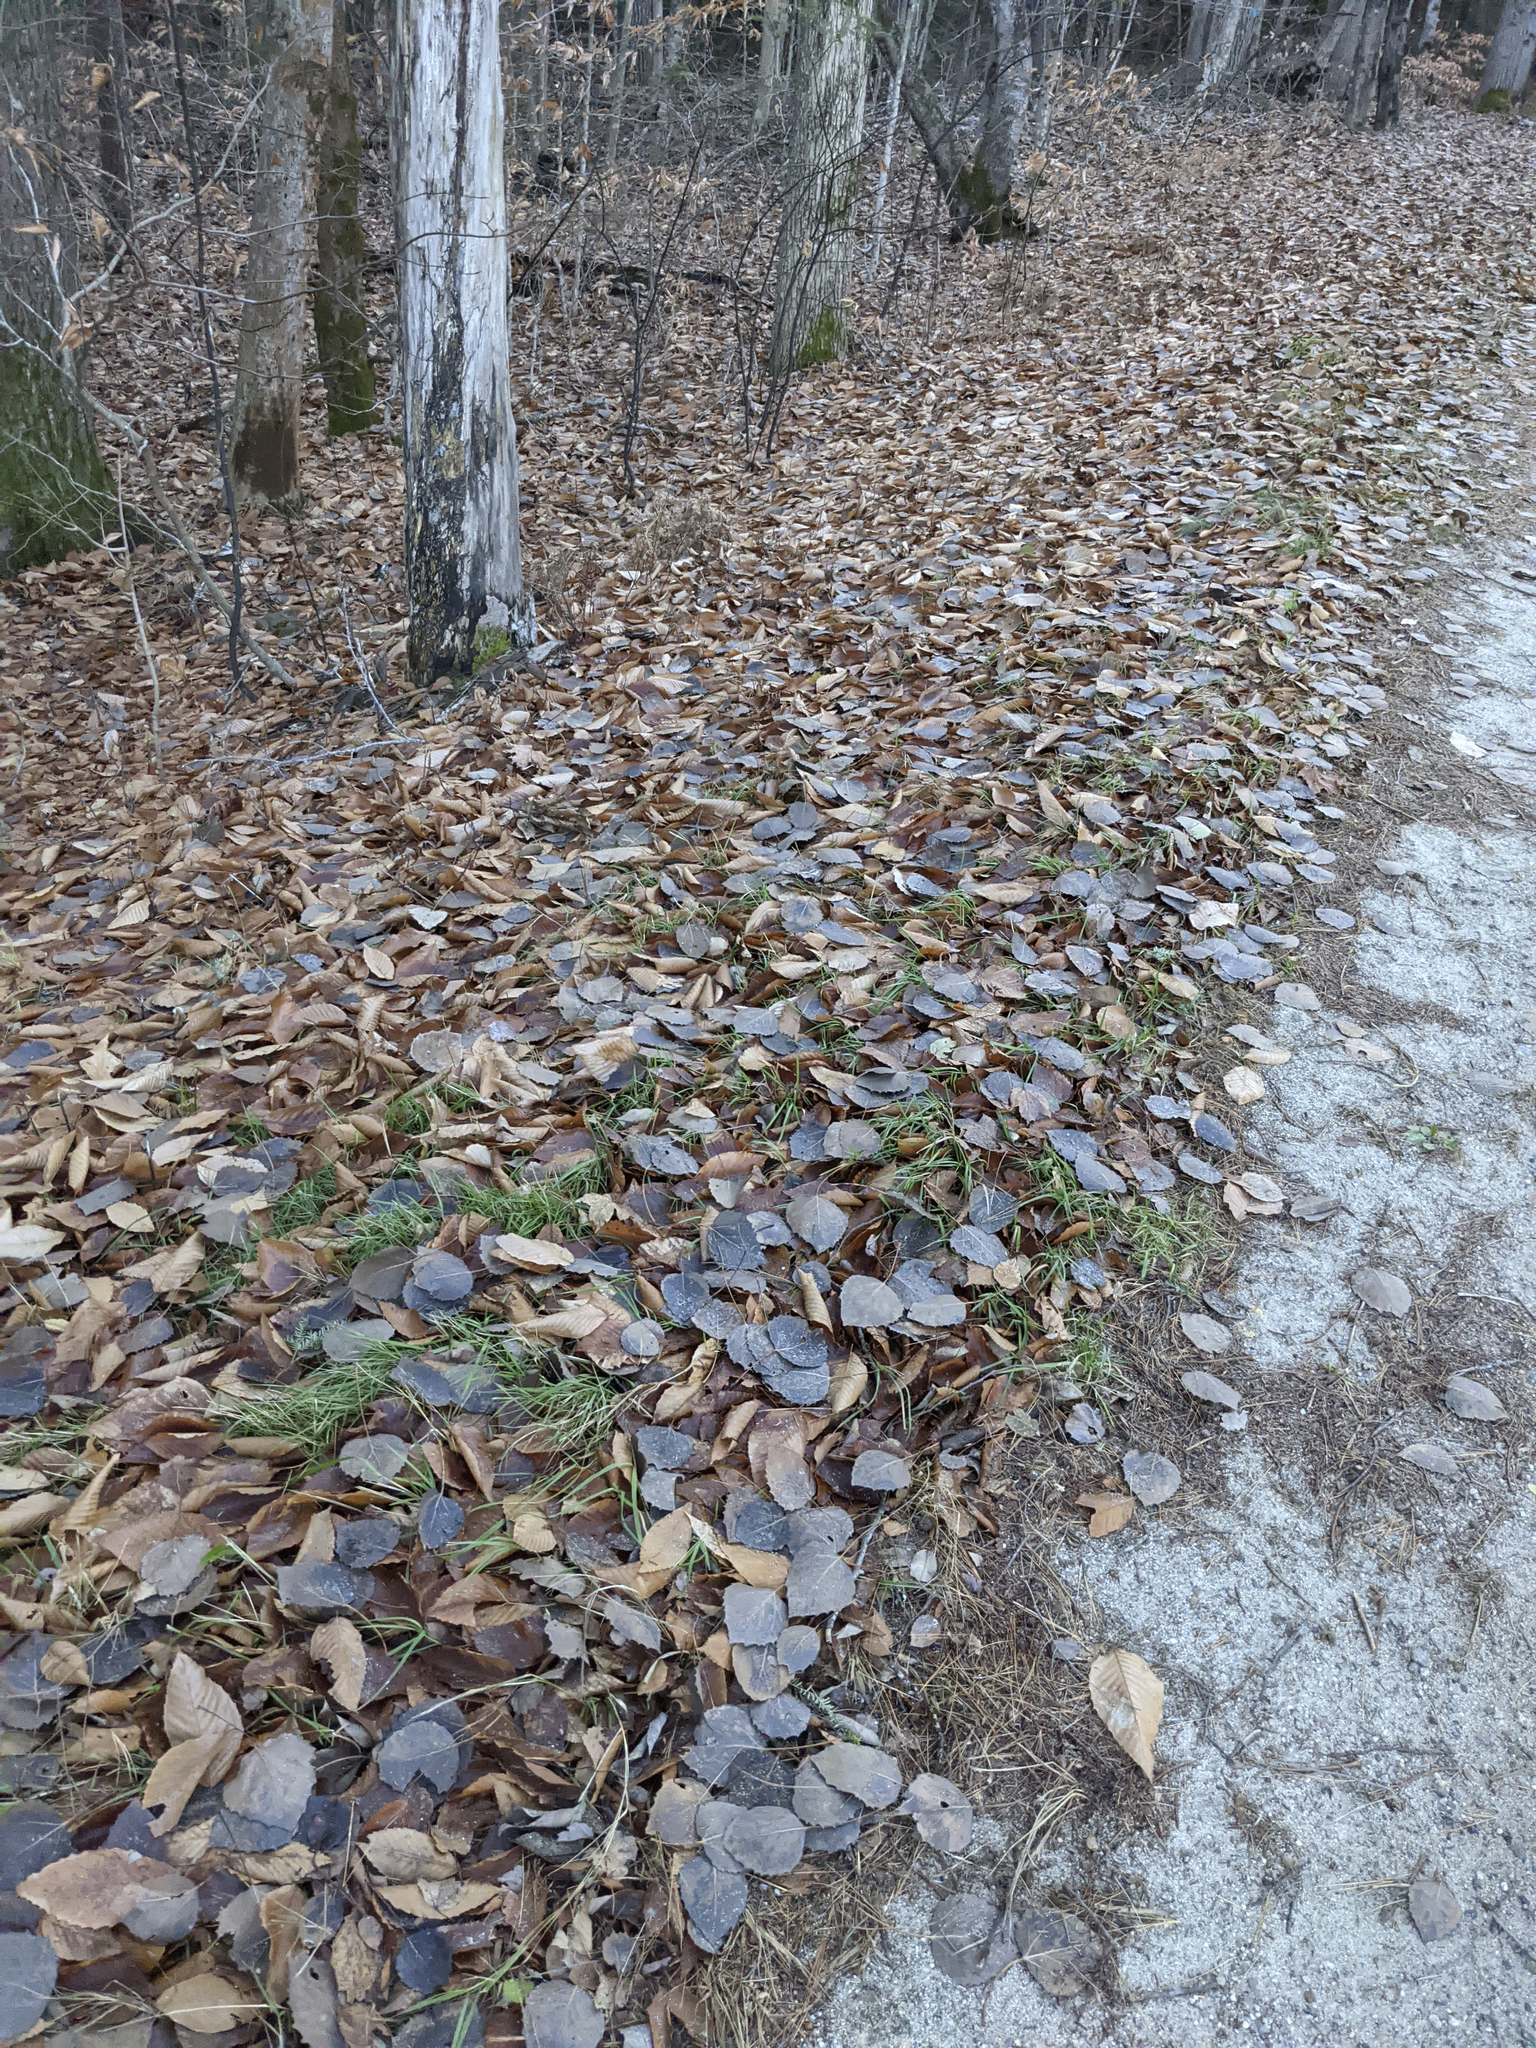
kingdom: Plantae
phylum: Tracheophyta
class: Magnoliopsida
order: Malpighiales
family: Salicaceae
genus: Populus
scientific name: Populus grandidentata
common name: Bigtooth aspen
